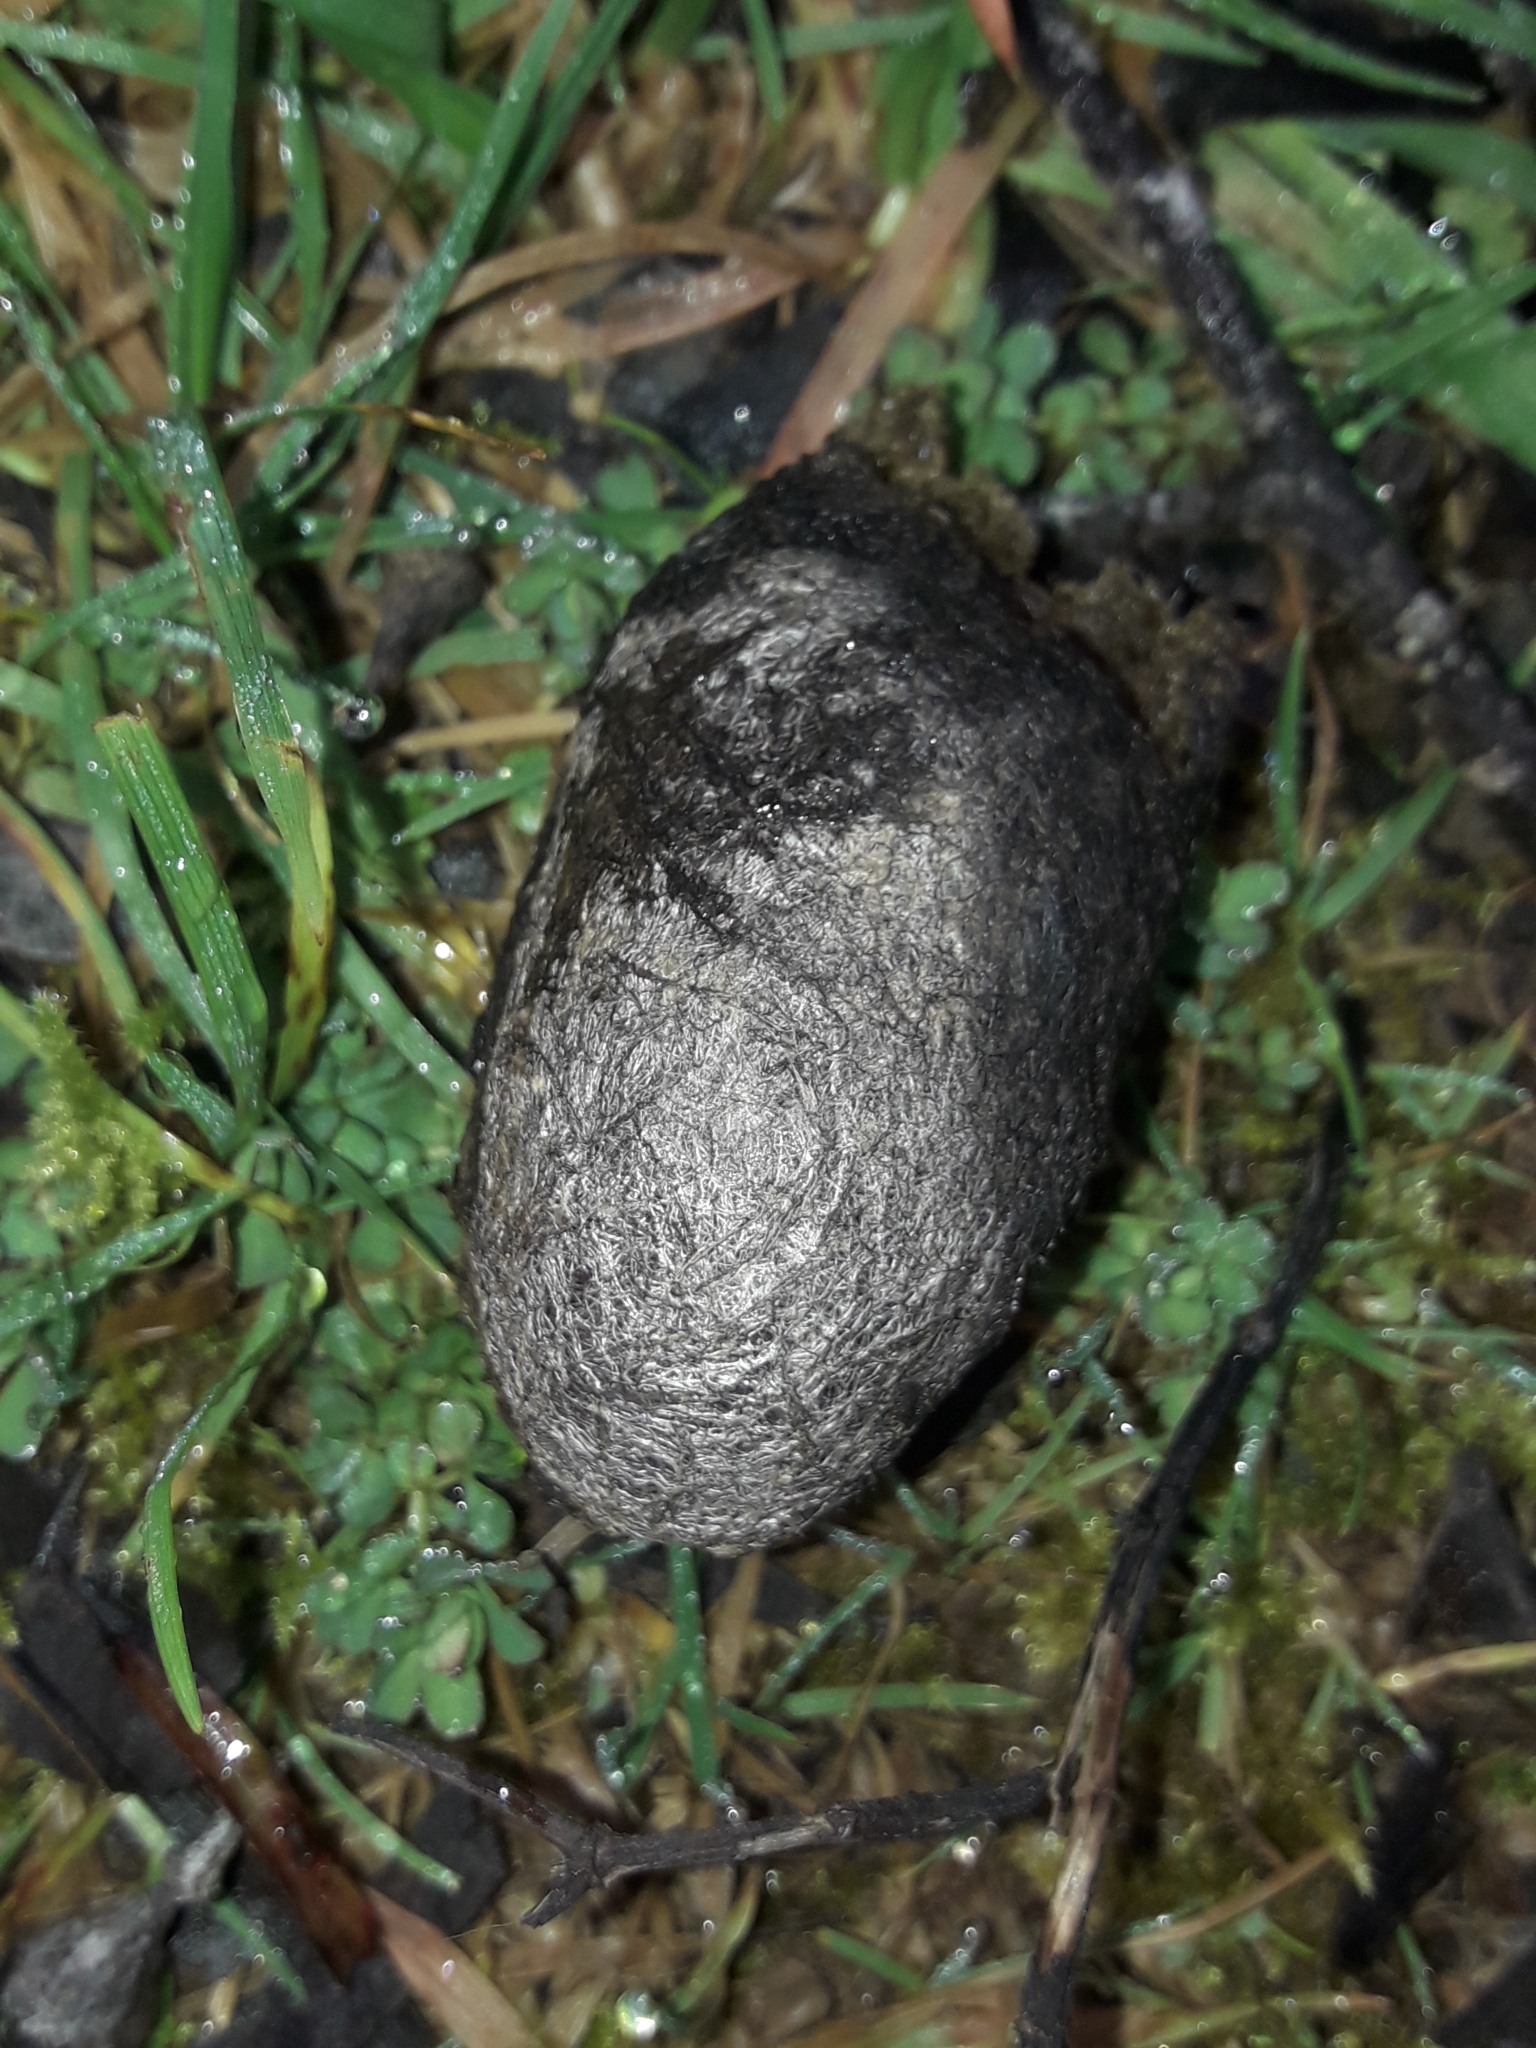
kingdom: Animalia
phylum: Arthropoda
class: Insecta
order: Lepidoptera
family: Saturniidae
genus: Opodiphthera
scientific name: Opodiphthera
